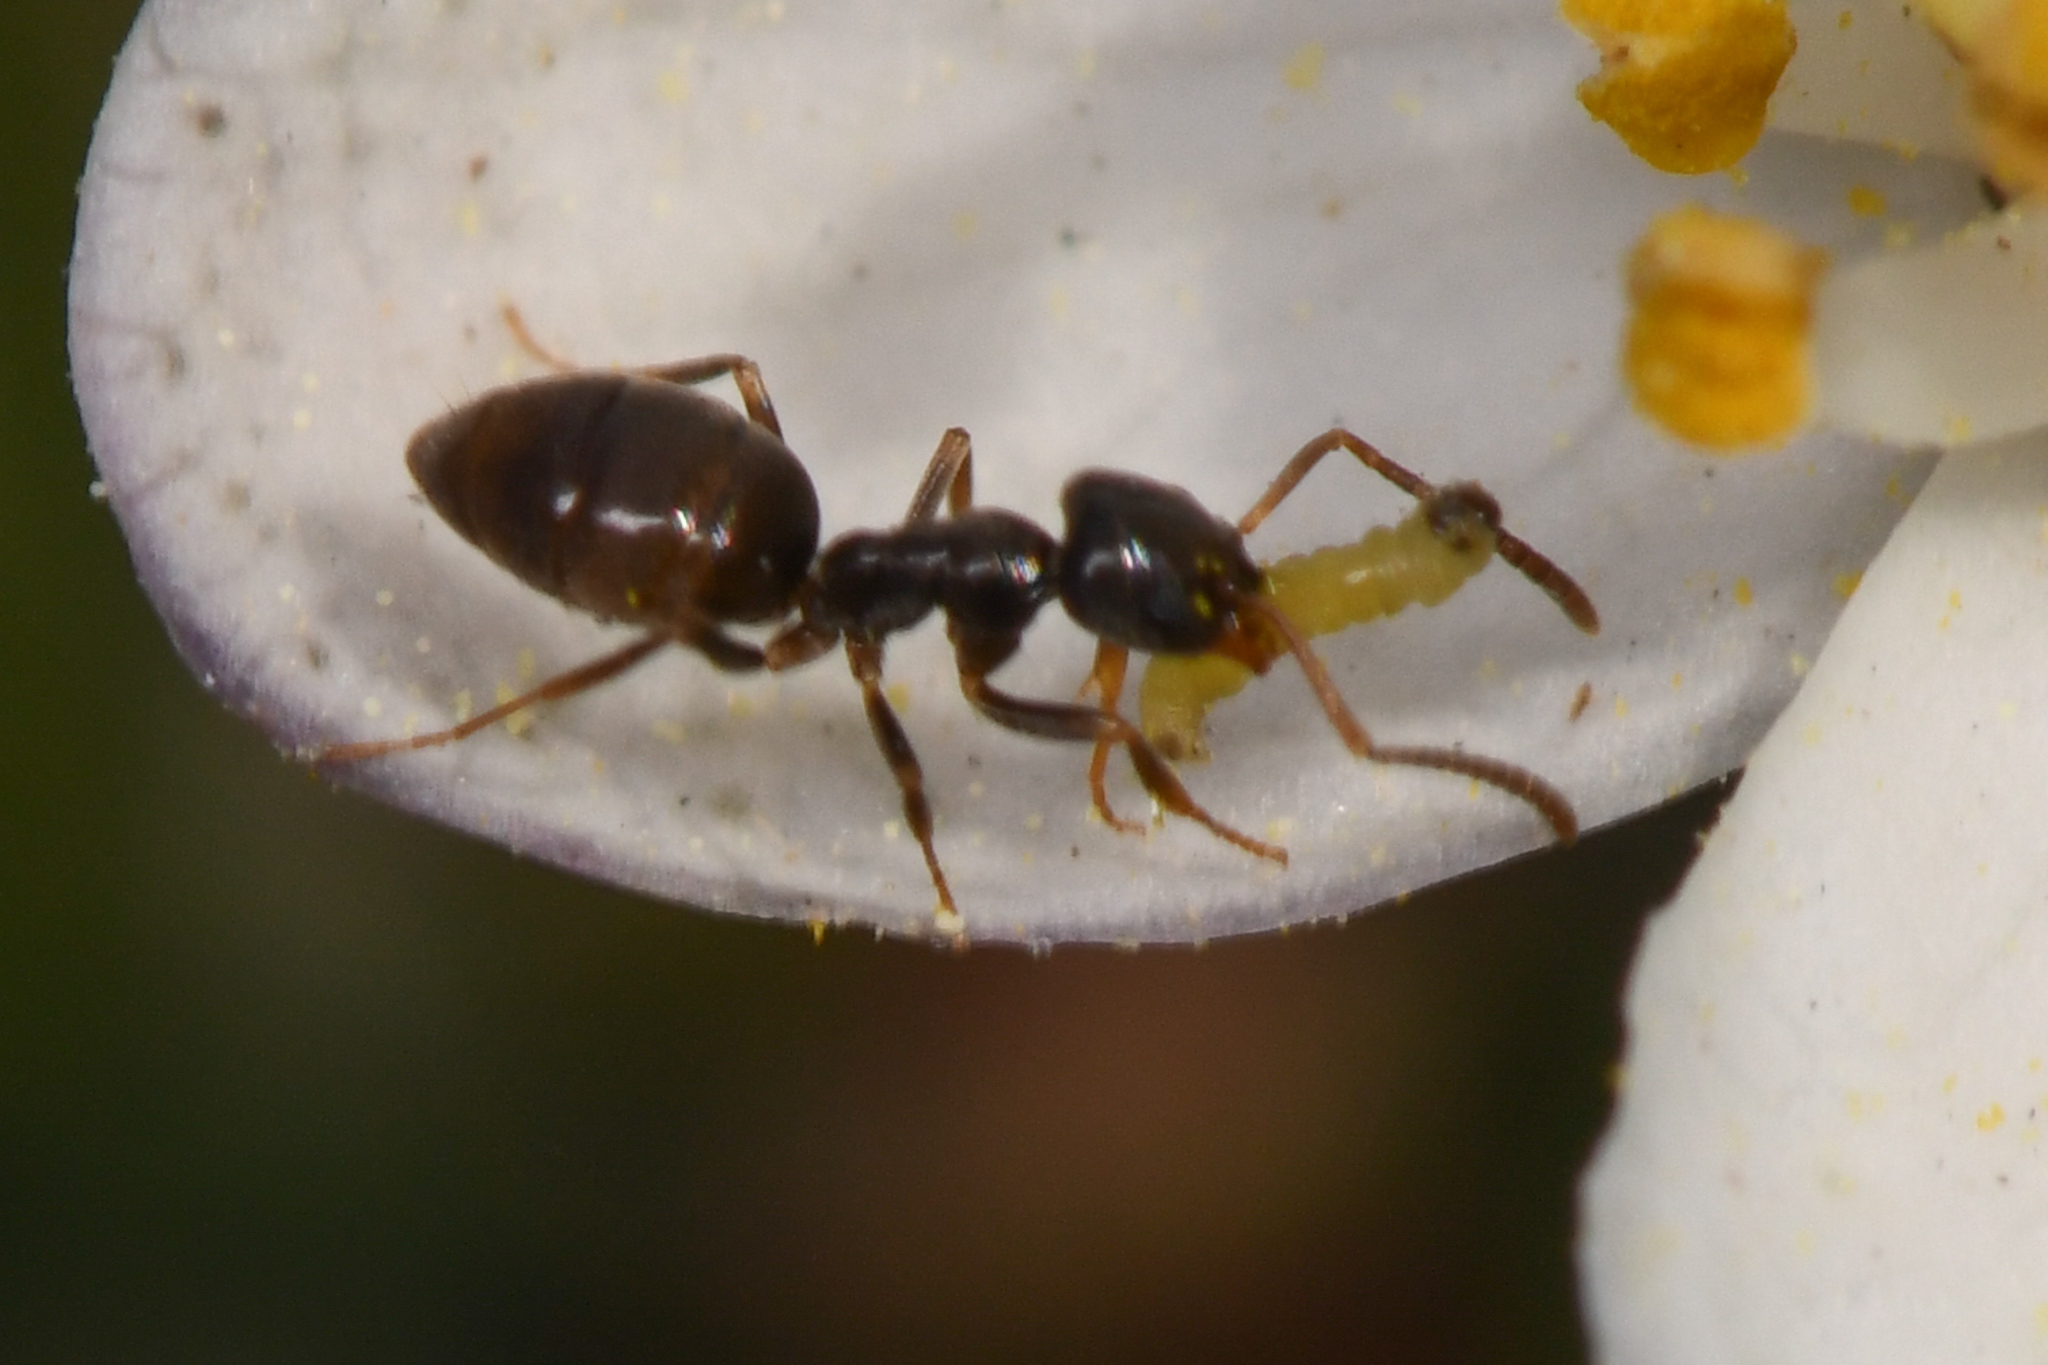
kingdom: Animalia
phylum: Arthropoda
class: Insecta
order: Hymenoptera
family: Formicidae
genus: Tapinoma
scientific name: Tapinoma sessile
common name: Odorous house ant
